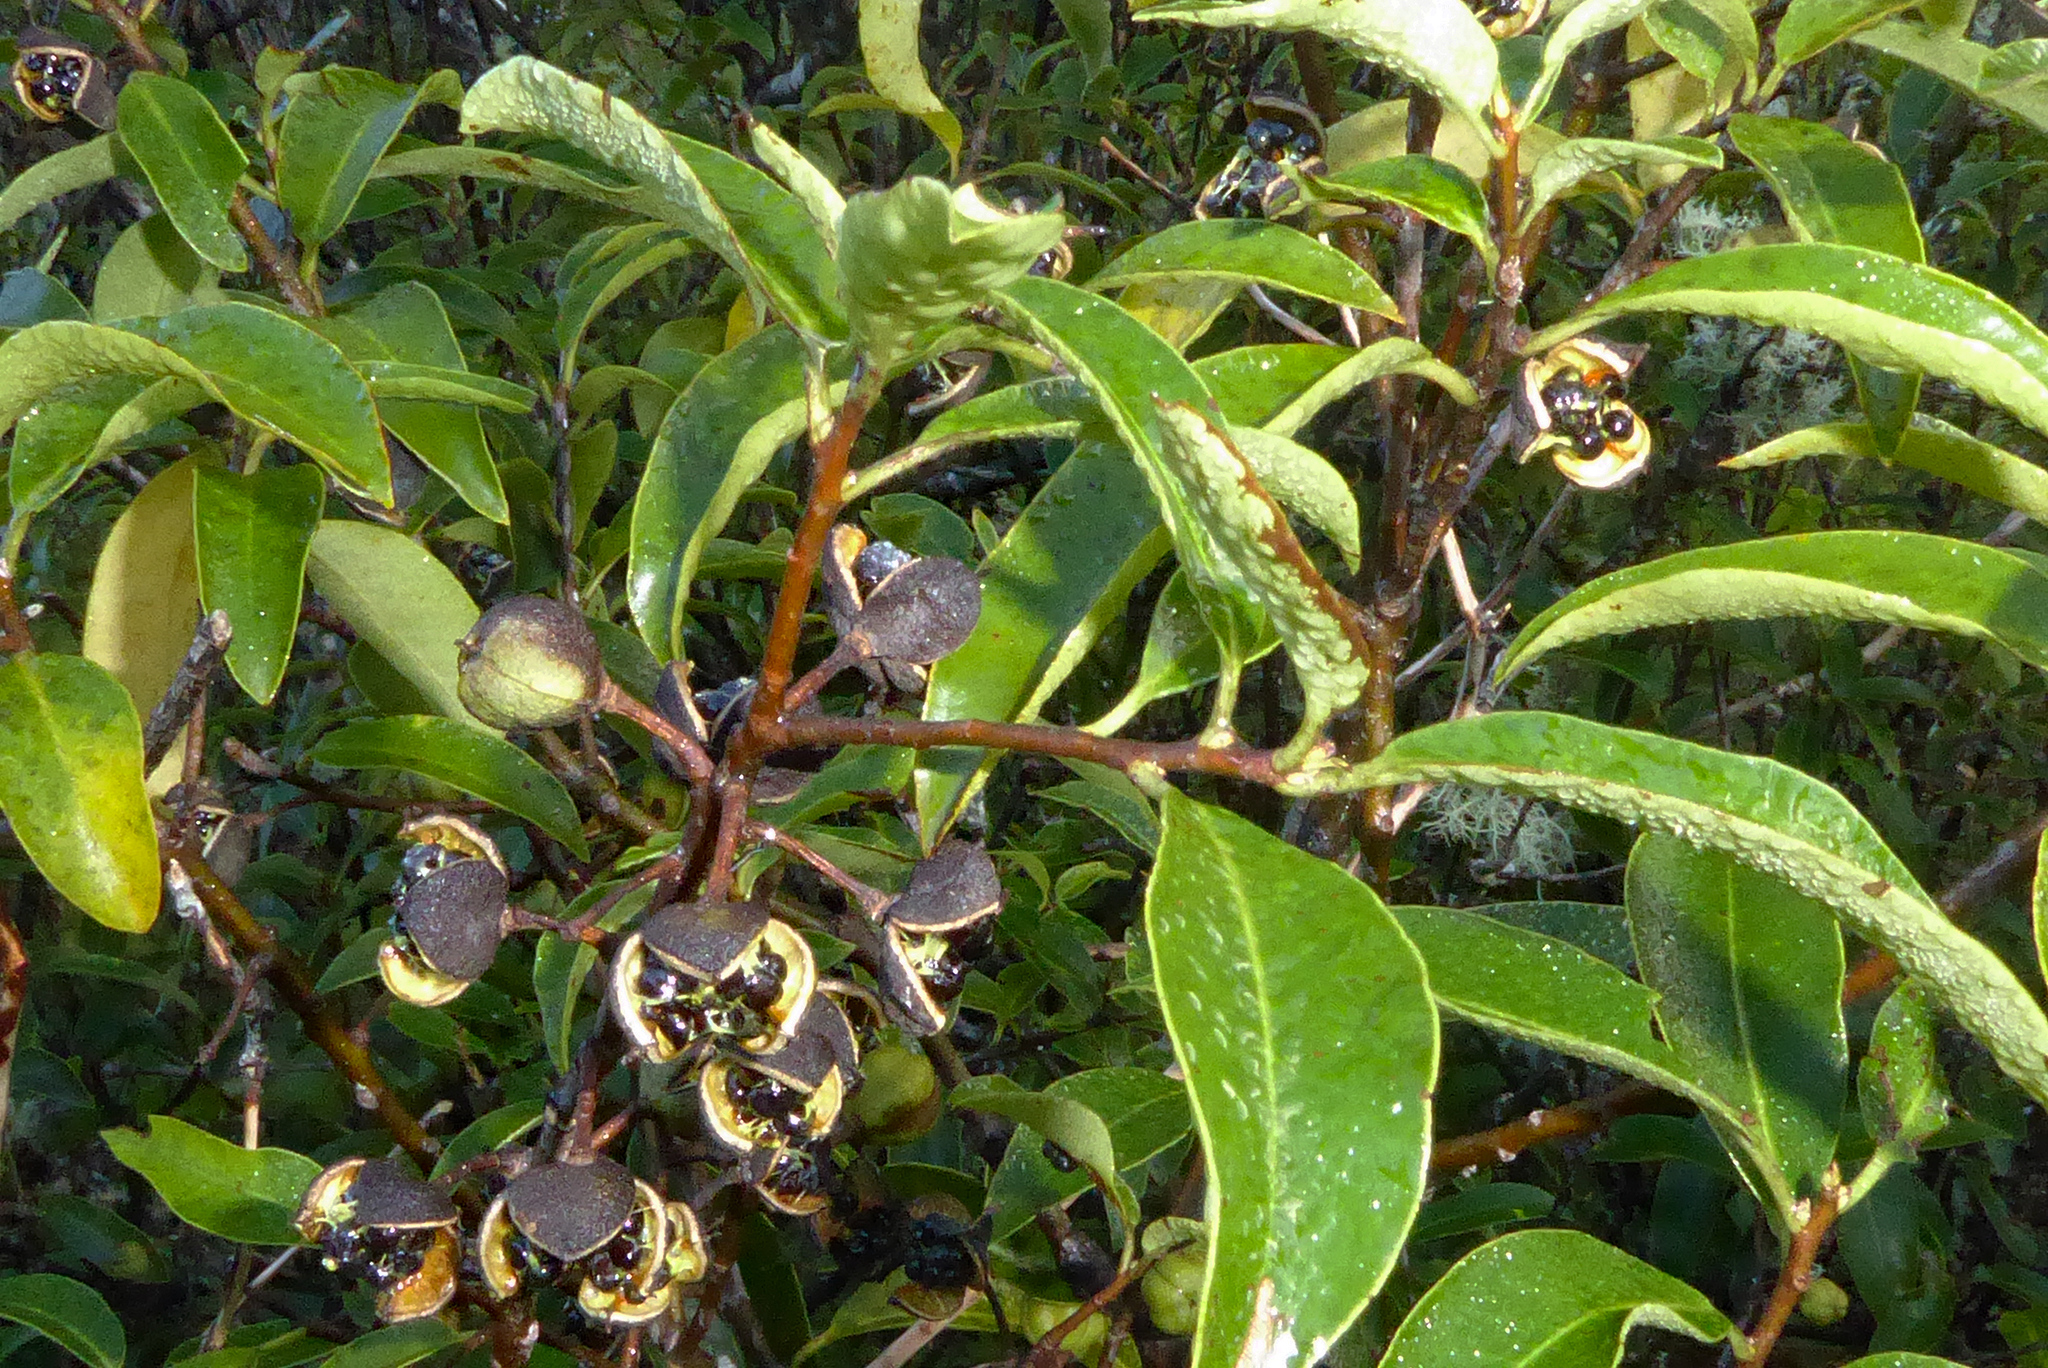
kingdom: Plantae
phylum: Tracheophyta
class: Magnoliopsida
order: Apiales
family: Pittosporaceae
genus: Pittosporum
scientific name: Pittosporum colensoi
